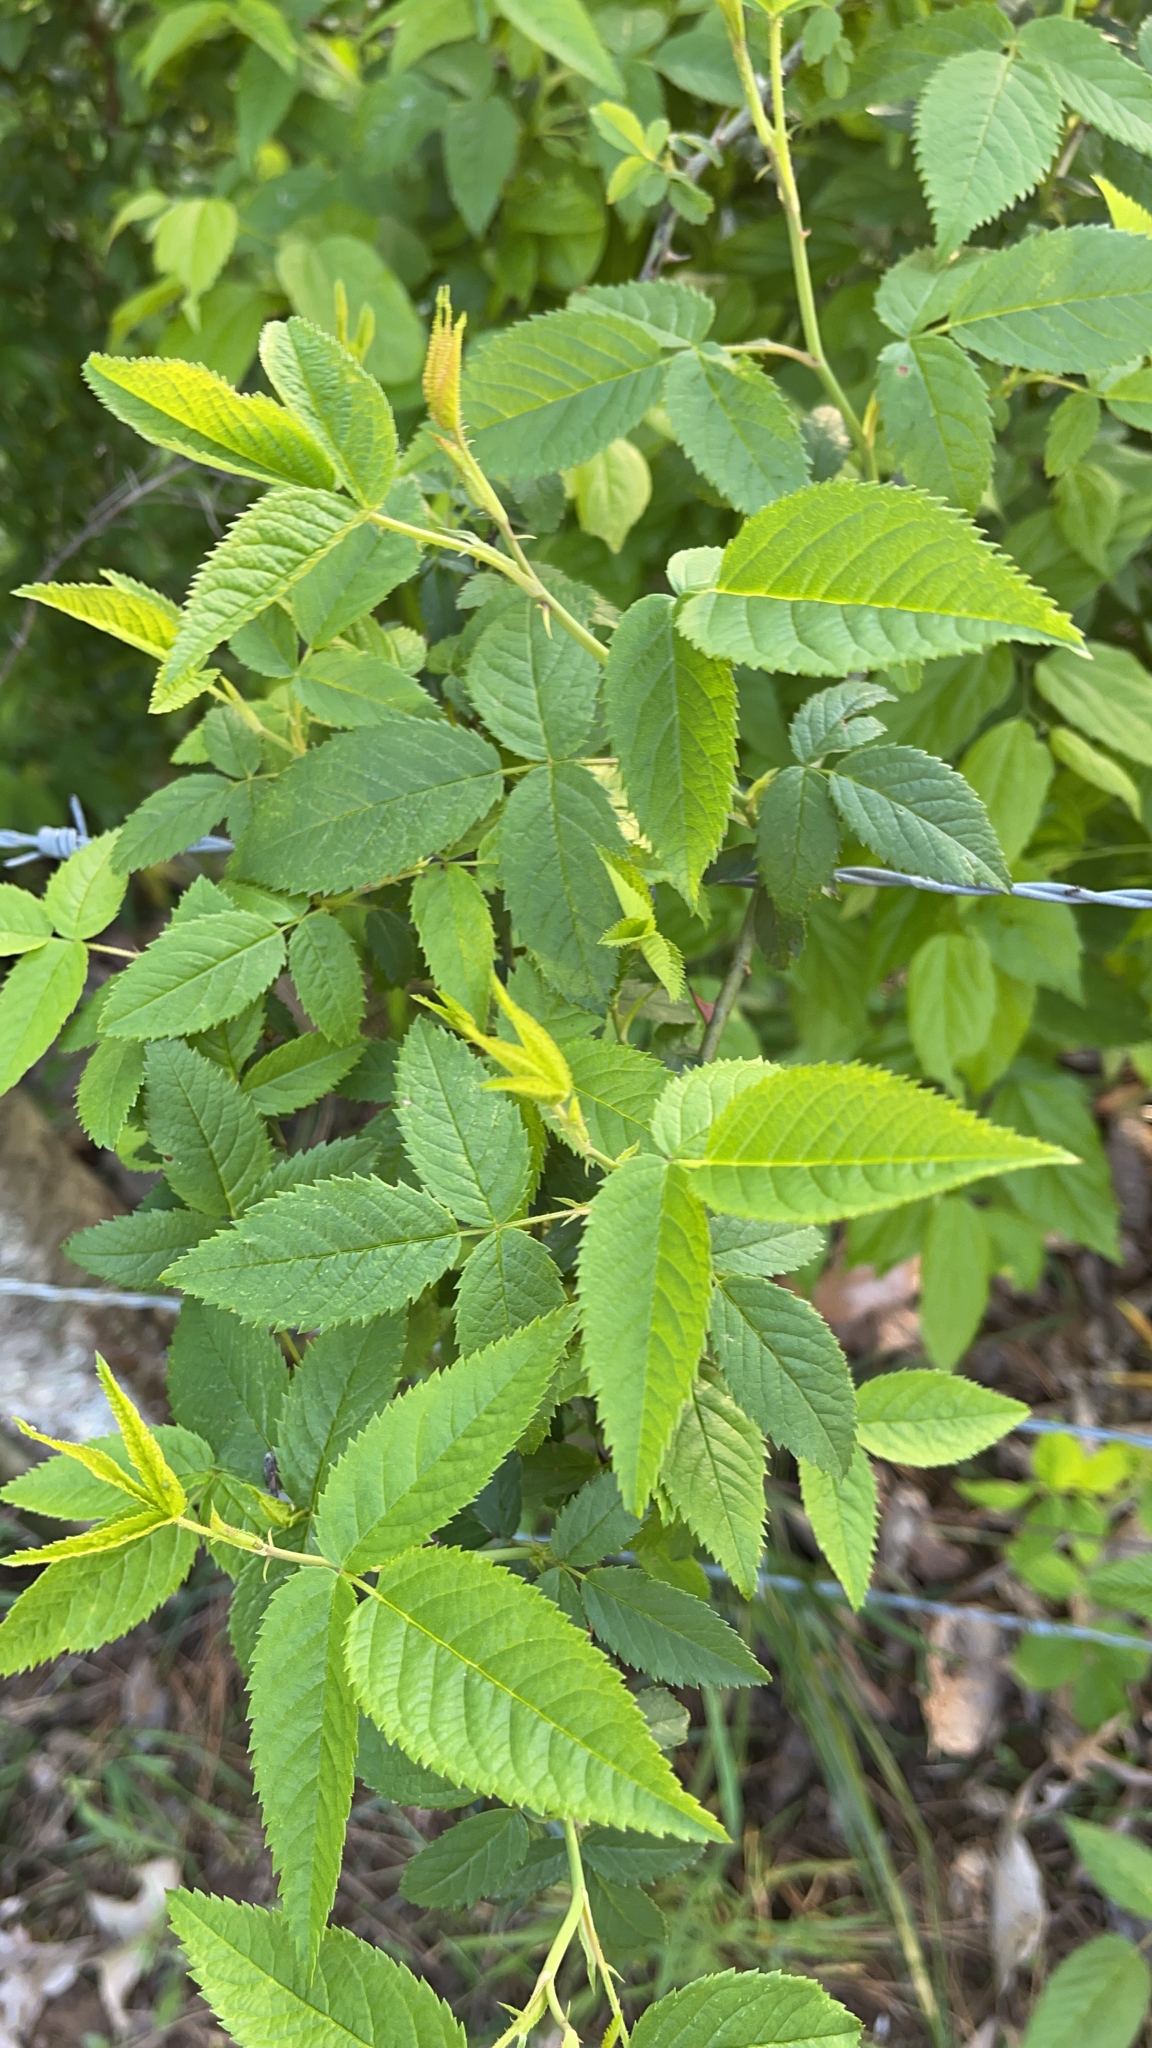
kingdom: Plantae
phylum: Tracheophyta
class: Magnoliopsida
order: Rosales
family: Rosaceae
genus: Rosa
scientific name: Rosa setigera
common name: Prairie rose
